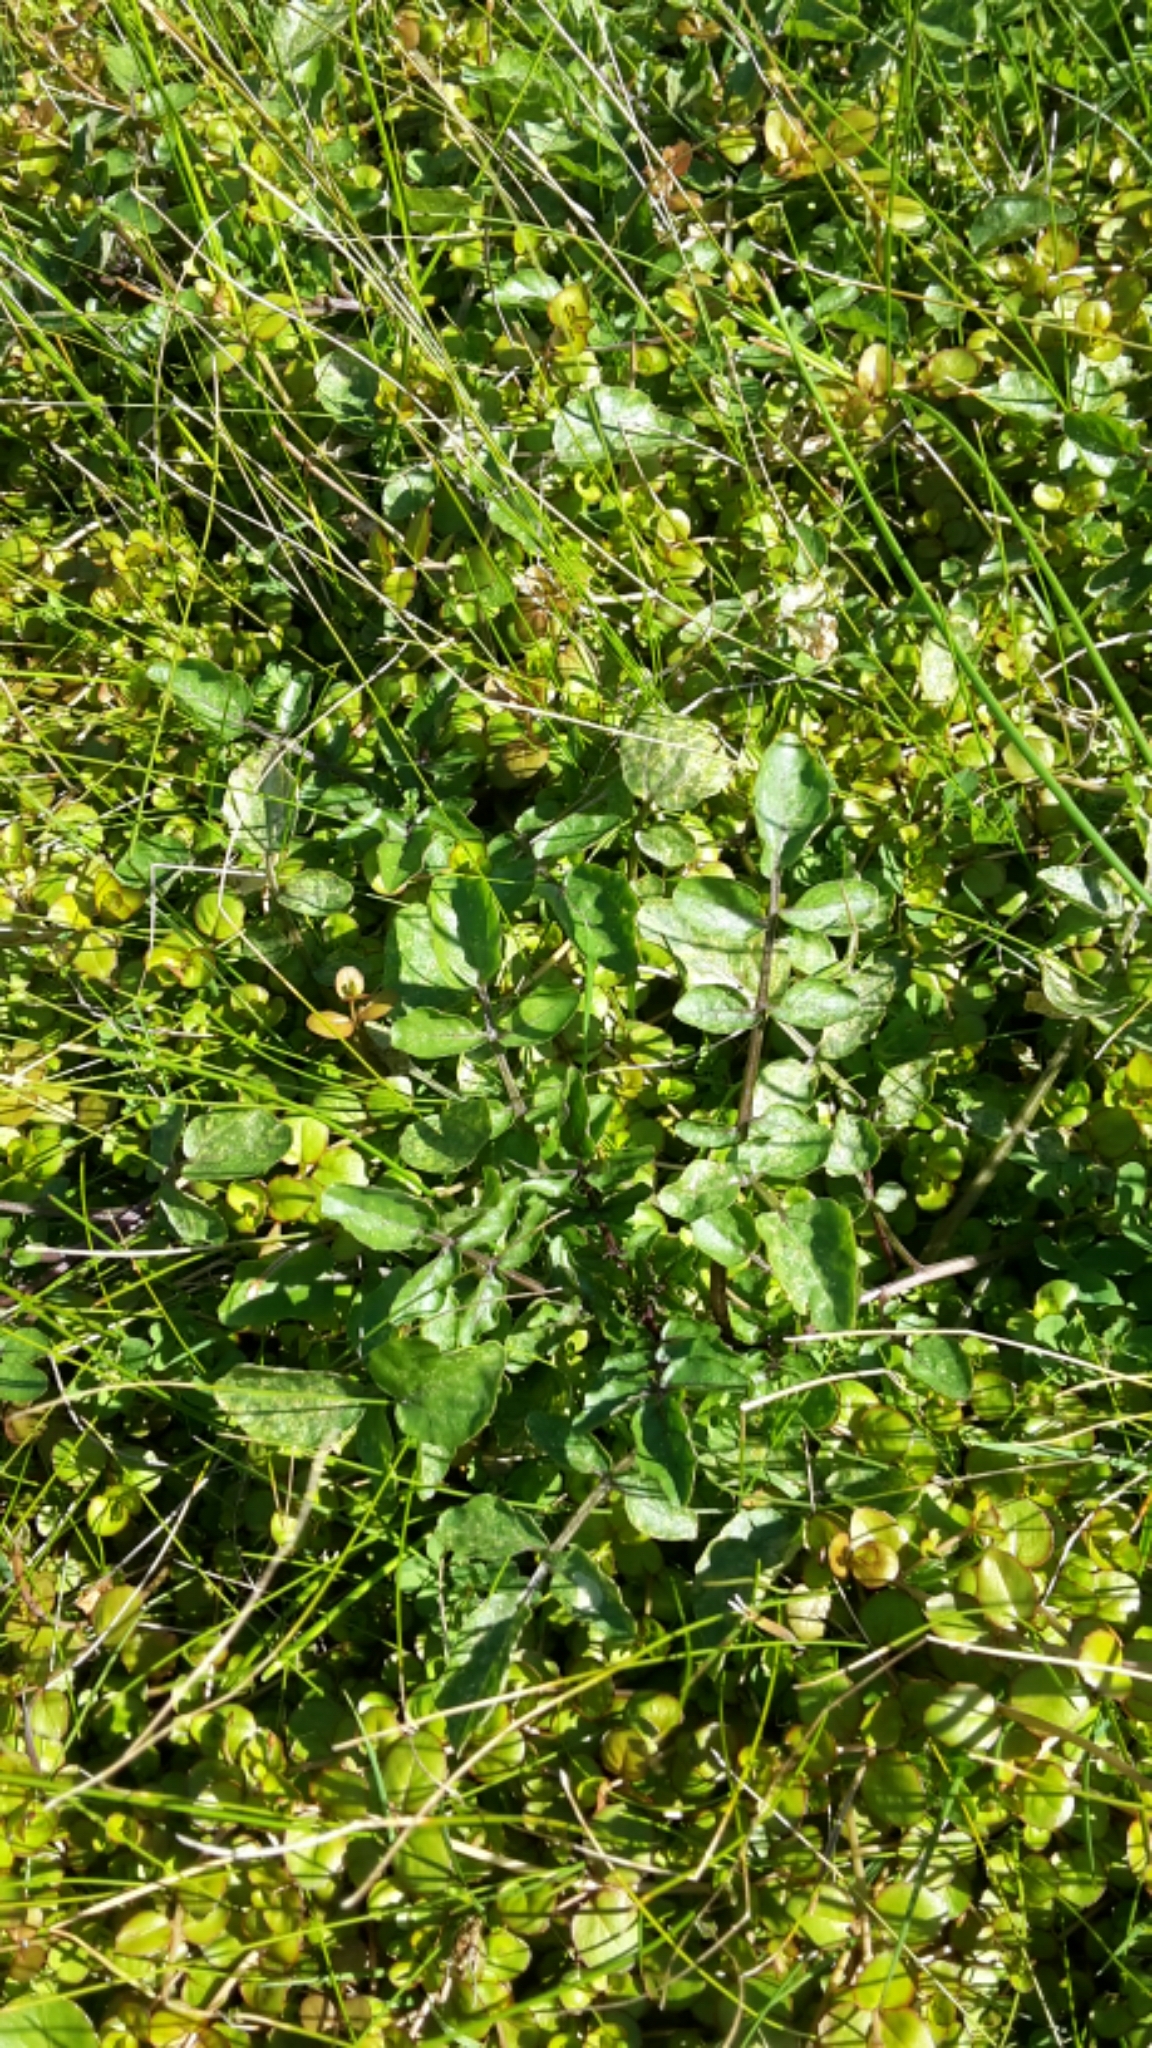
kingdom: Plantae
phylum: Tracheophyta
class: Magnoliopsida
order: Brassicales
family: Brassicaceae
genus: Nasturtium
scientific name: Nasturtium officinale
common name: Watercress
